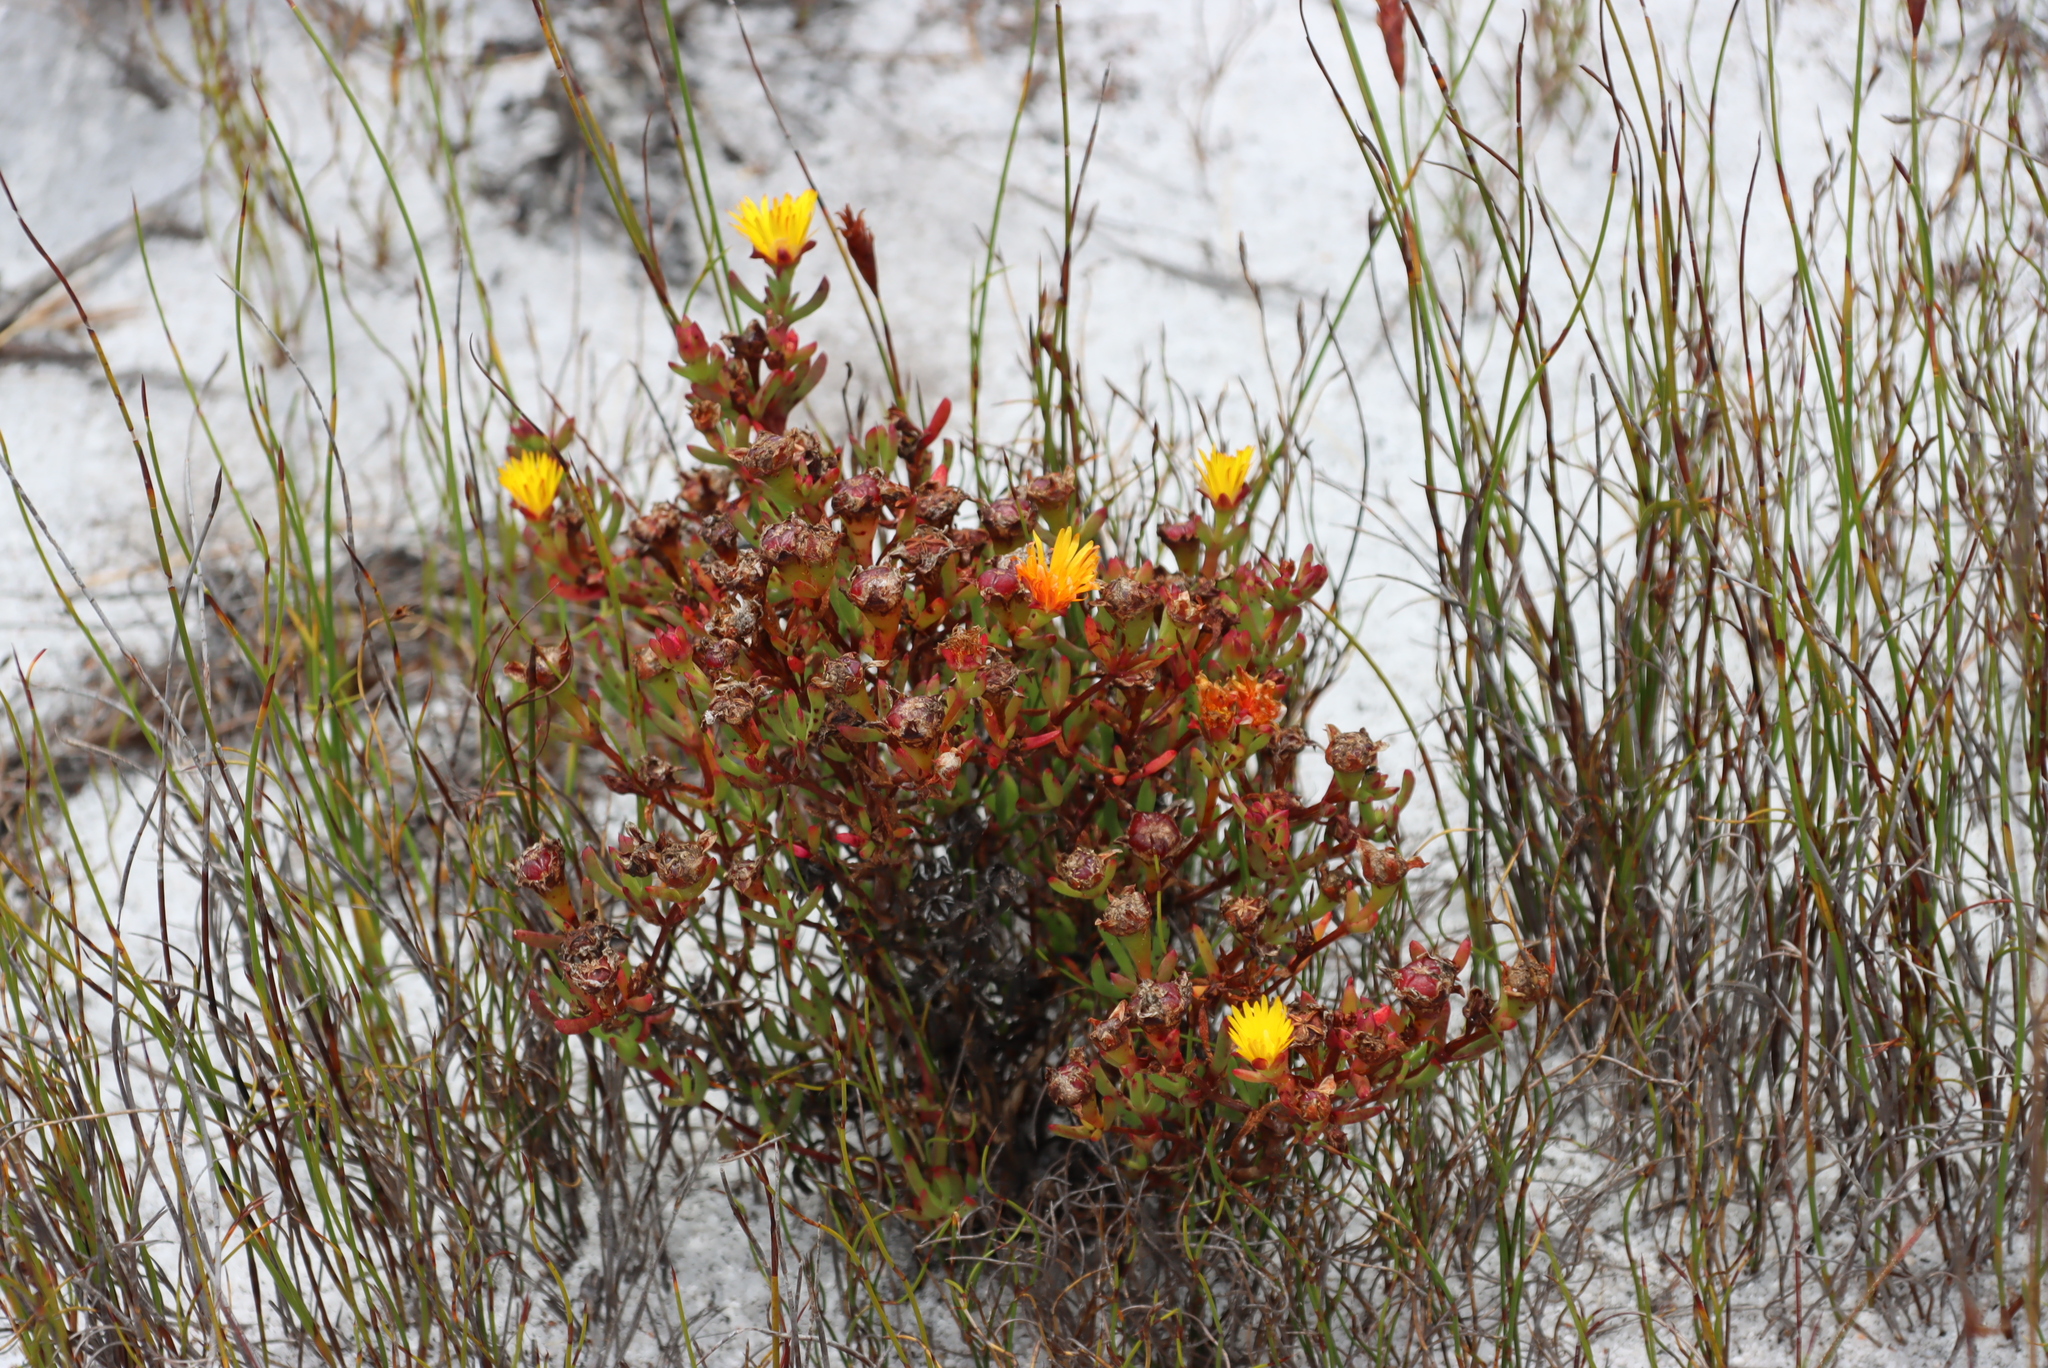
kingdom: Plantae
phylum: Tracheophyta
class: Magnoliopsida
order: Caryophyllales
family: Aizoaceae
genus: Lampranthus
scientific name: Lampranthus promontorii
